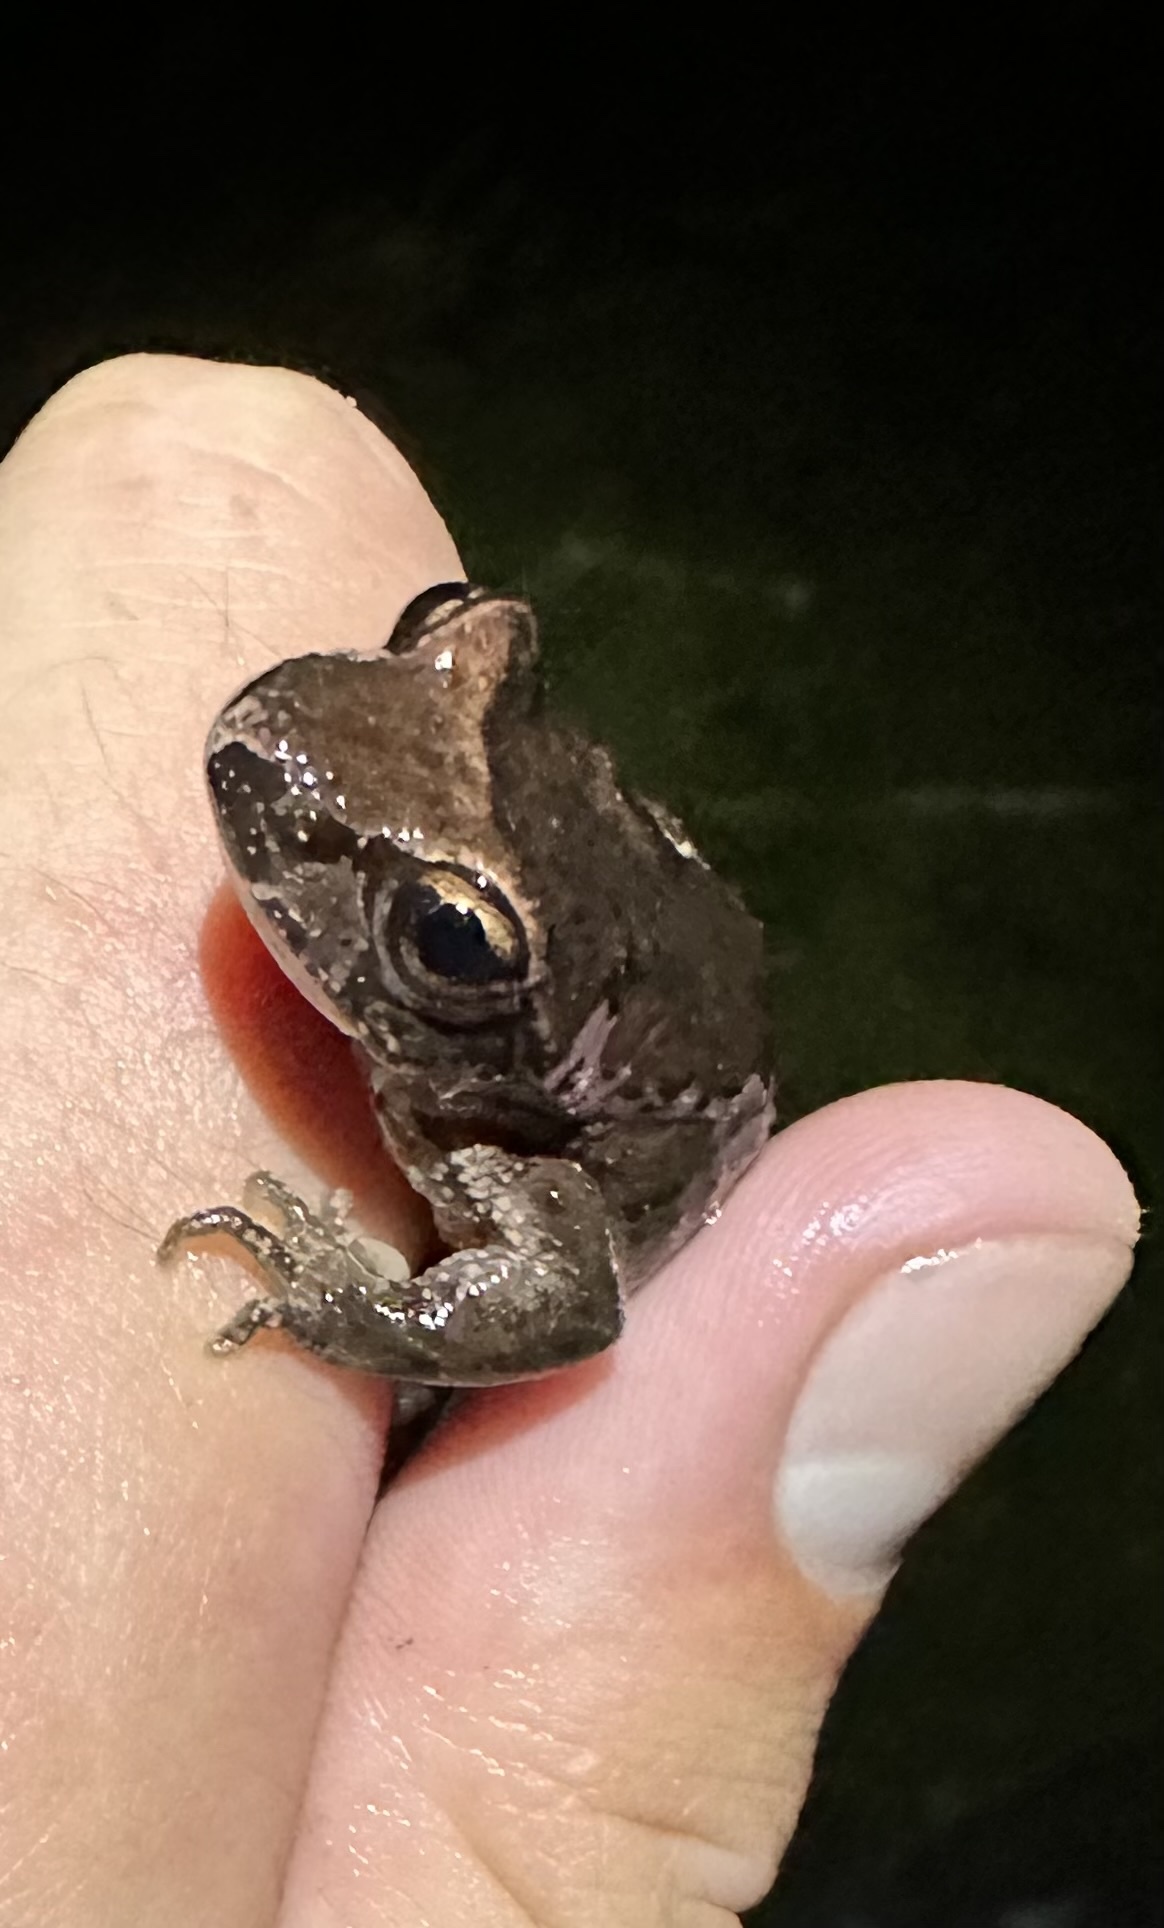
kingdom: Animalia
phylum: Chordata
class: Amphibia
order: Anura
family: Ascaphidae
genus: Ascaphus
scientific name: Ascaphus truei
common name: Tailed frog
